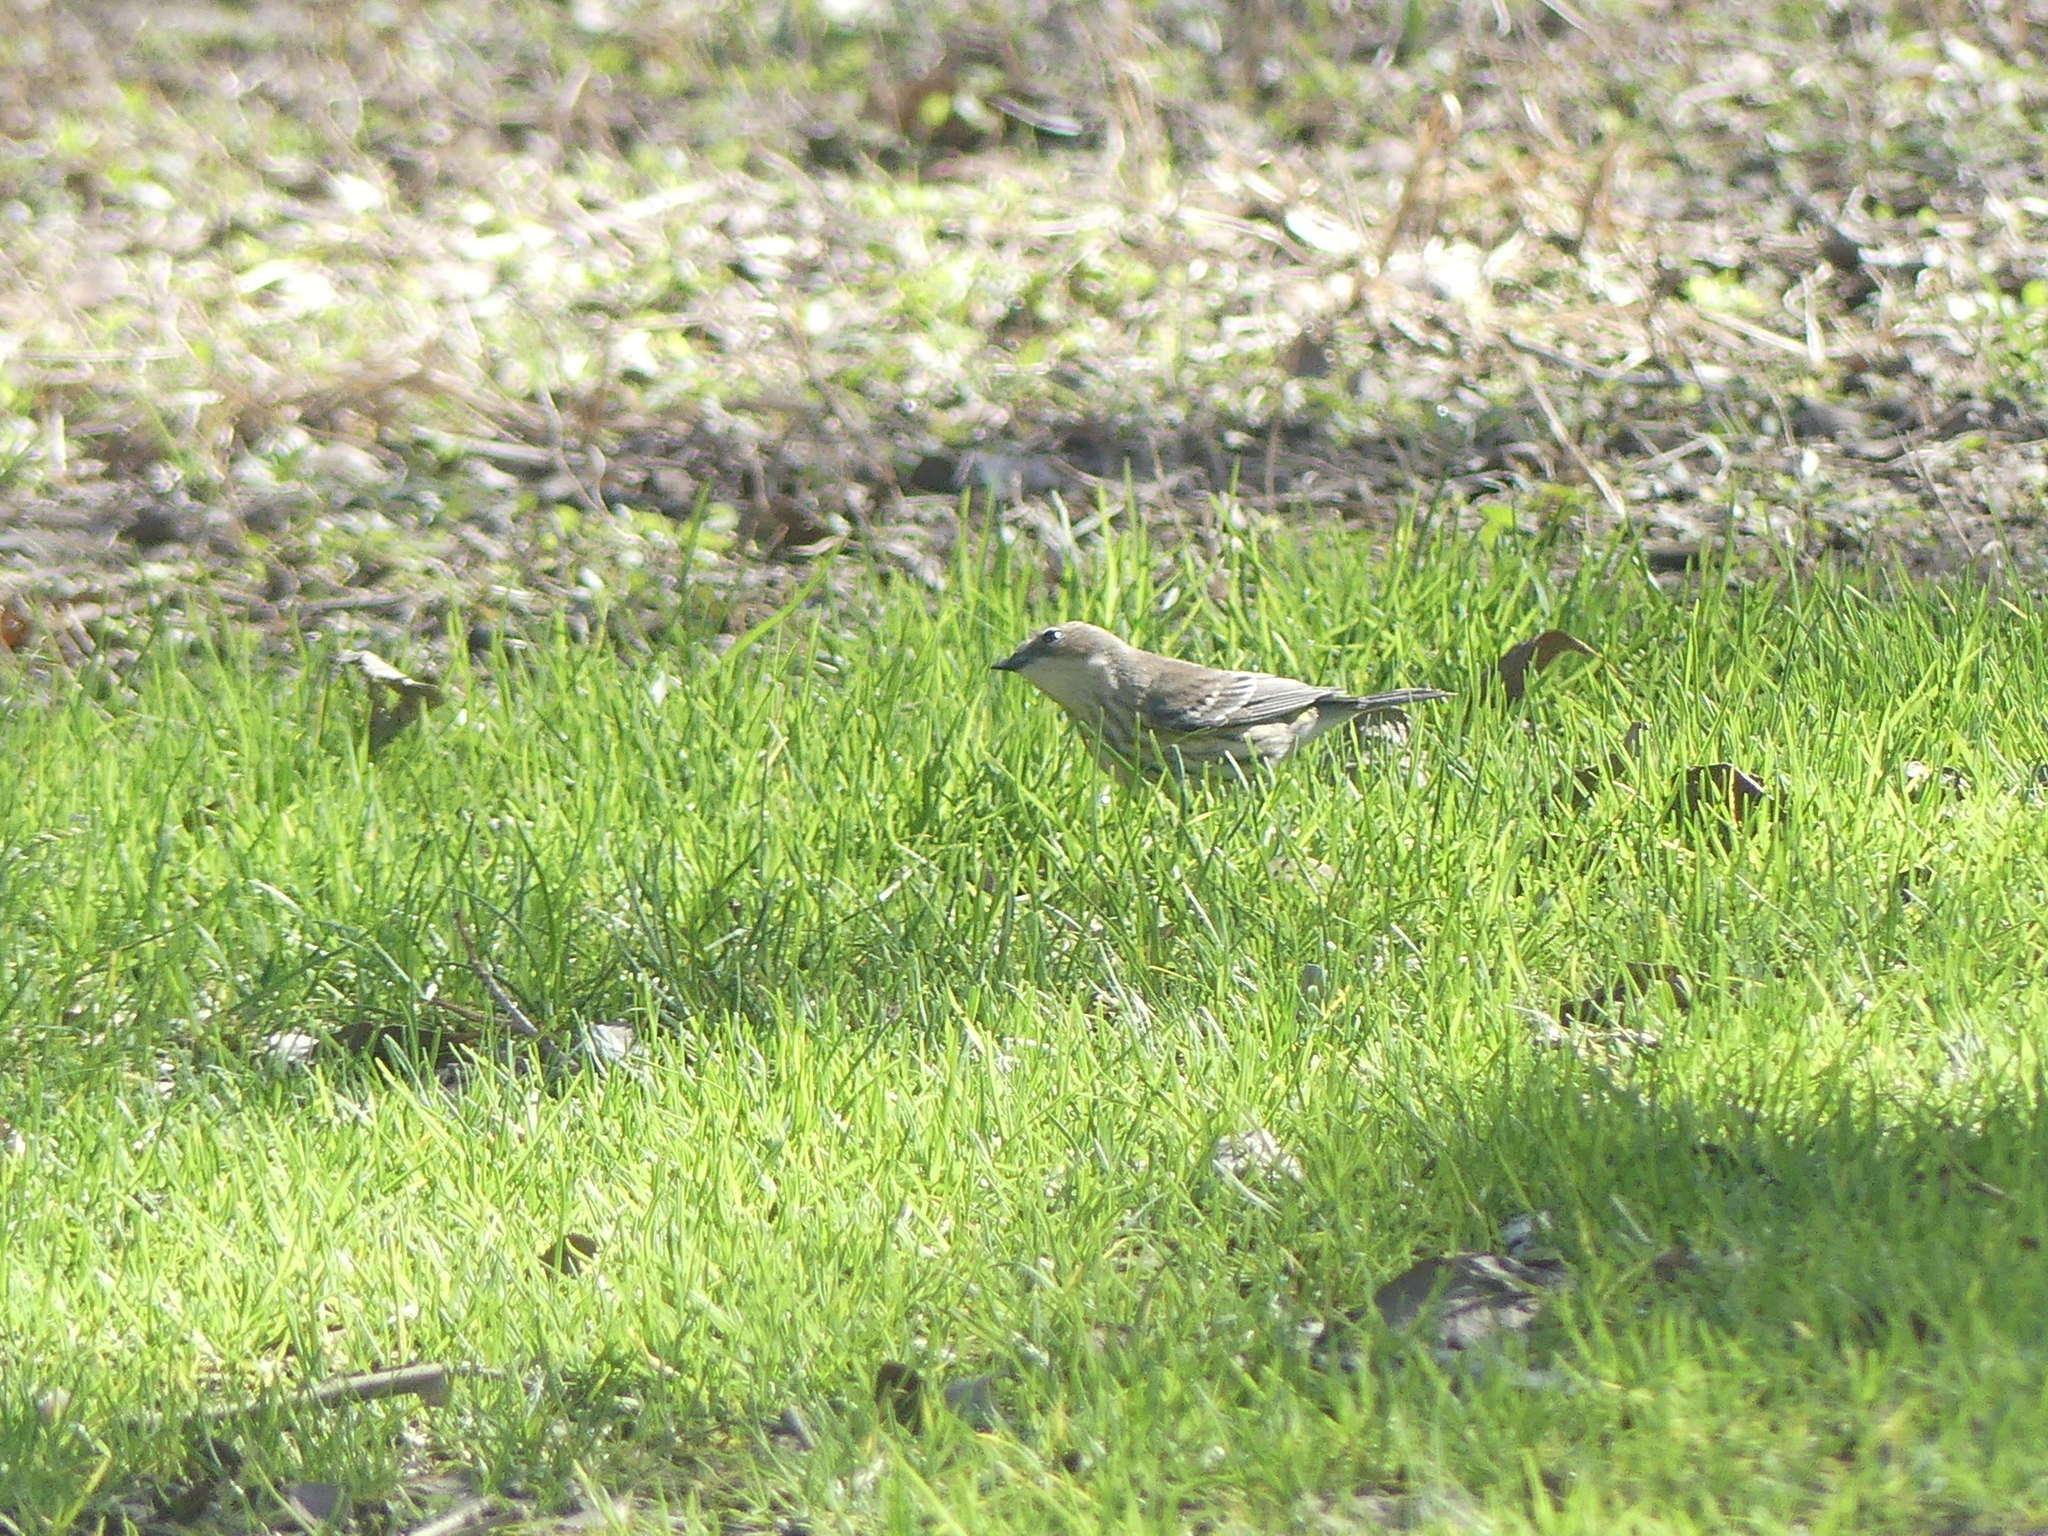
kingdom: Animalia
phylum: Chordata
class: Aves
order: Passeriformes
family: Parulidae
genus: Setophaga
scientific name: Setophaga coronata
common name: Myrtle warbler
